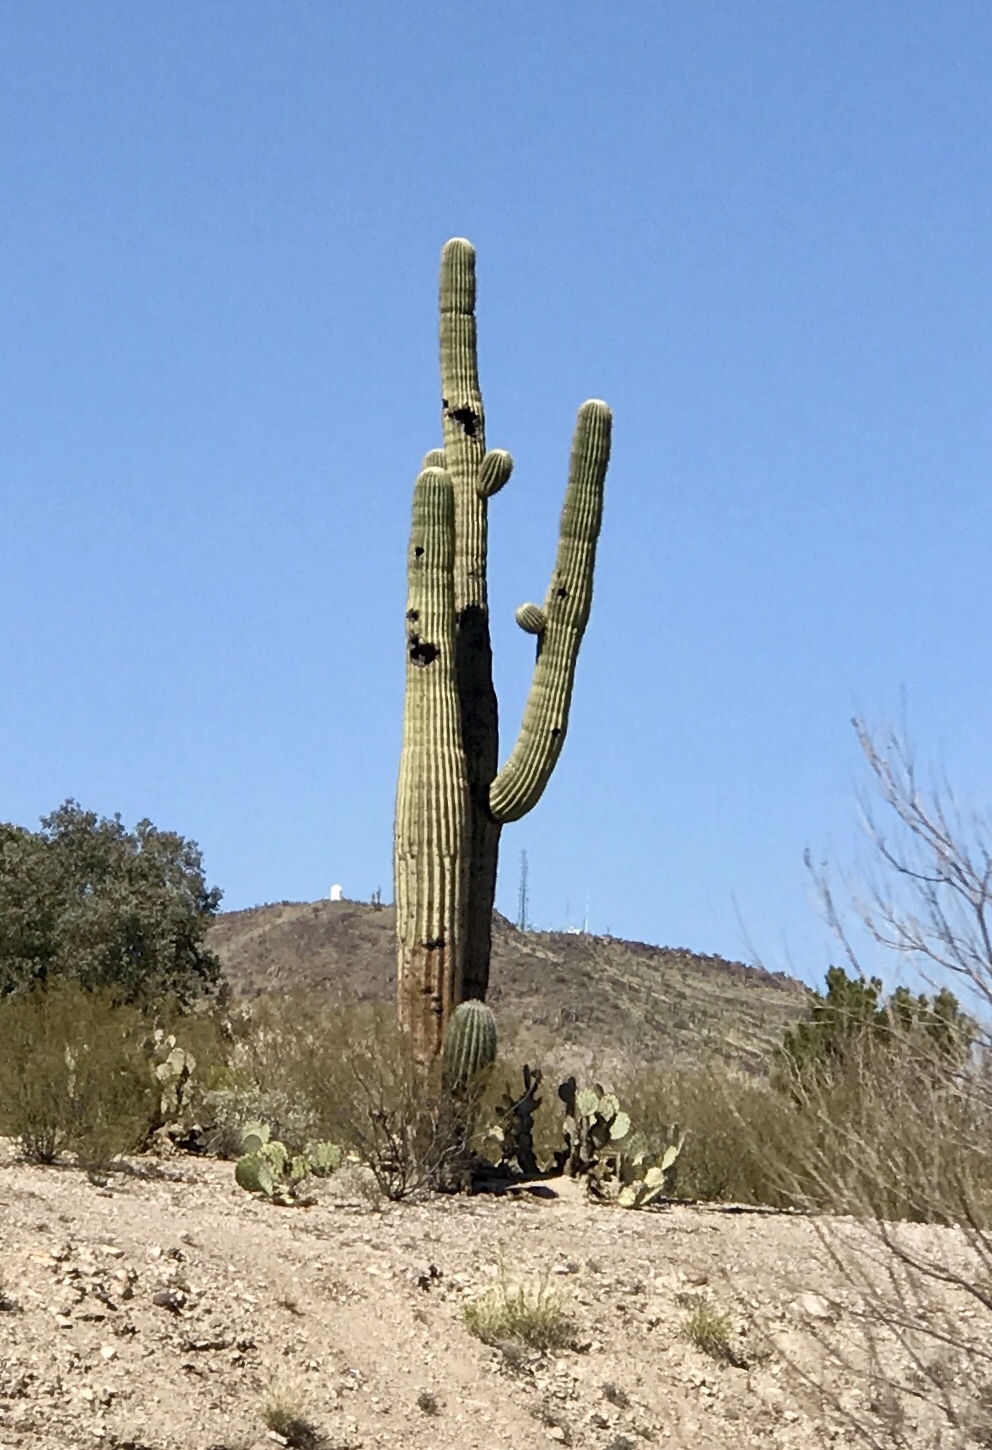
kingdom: Plantae
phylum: Tracheophyta
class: Magnoliopsida
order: Caryophyllales
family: Cactaceae
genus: Carnegiea
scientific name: Carnegiea gigantea
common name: Saguaro
